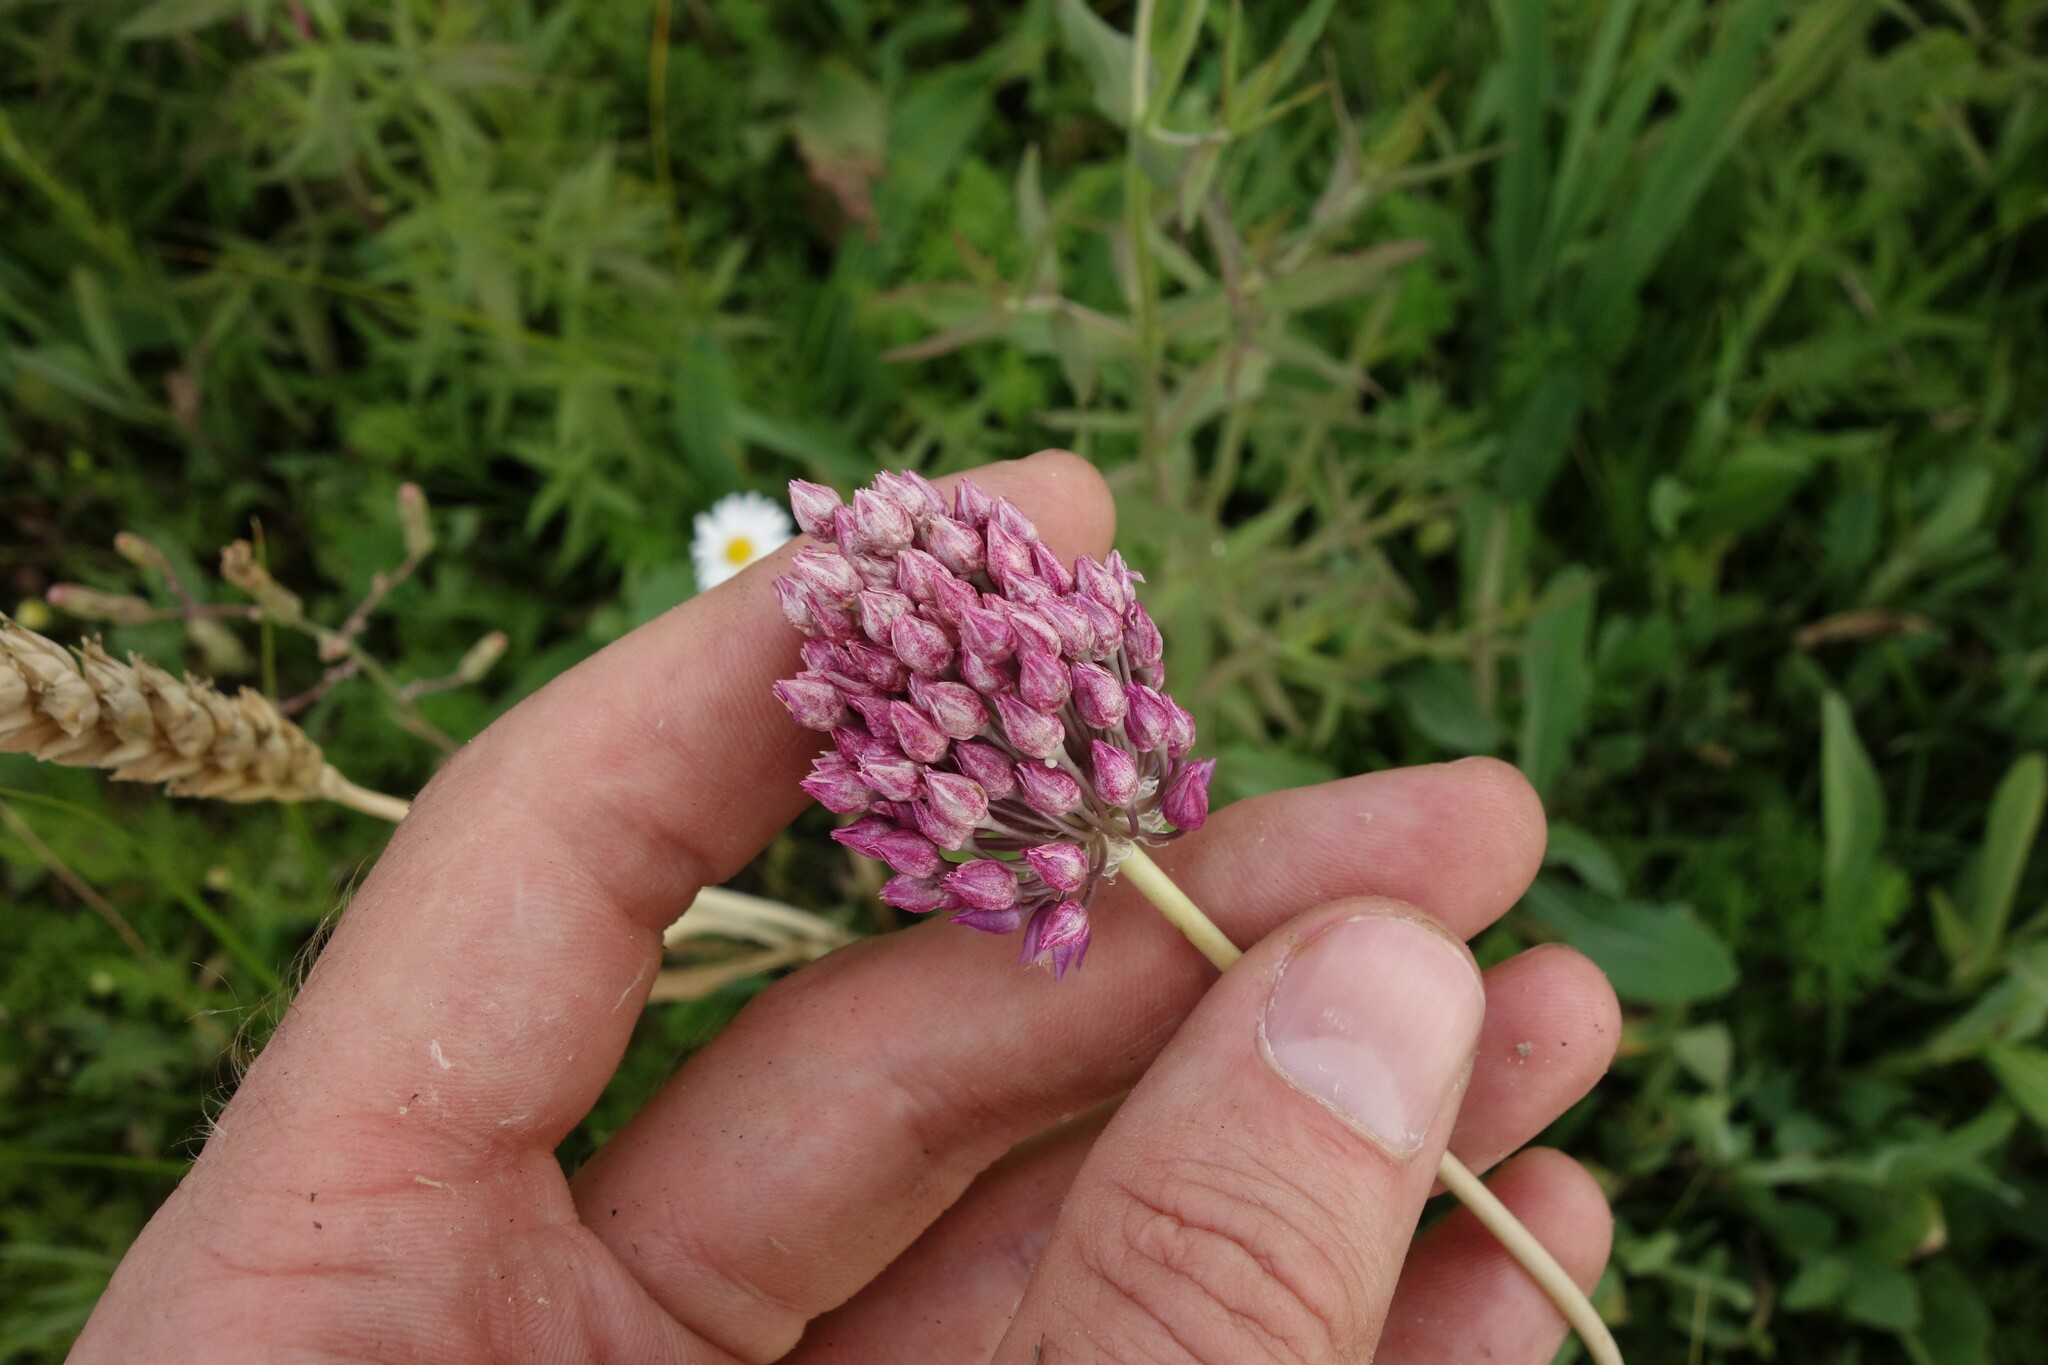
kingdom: Plantae
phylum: Tracheophyta
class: Liliopsida
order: Asparagales
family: Amaryllidaceae
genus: Allium
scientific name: Allium rotundum
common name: Sand leek
